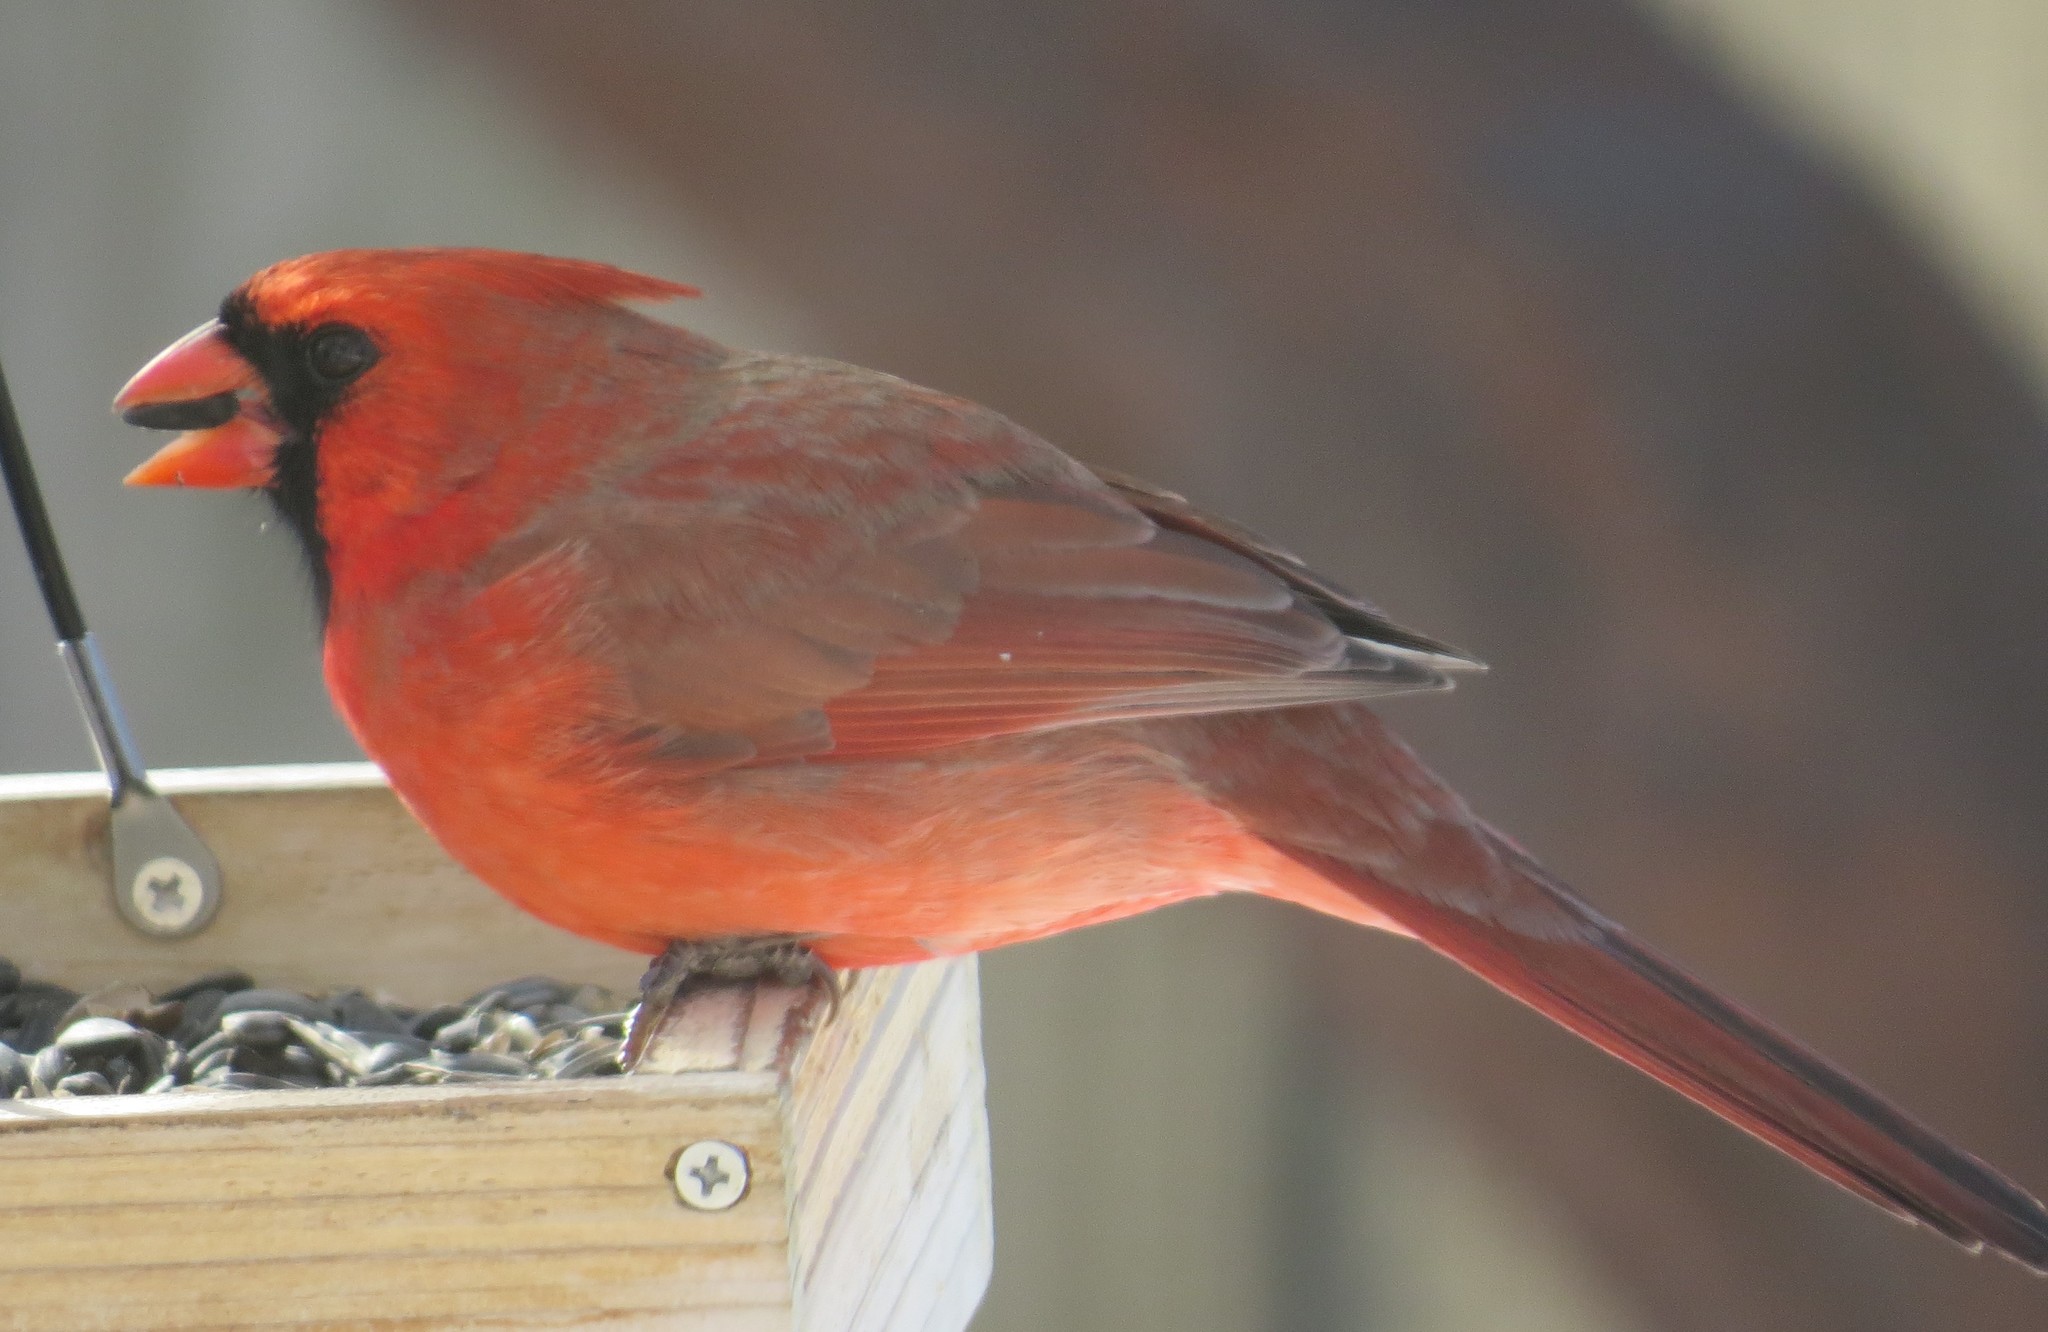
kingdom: Animalia
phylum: Chordata
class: Aves
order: Passeriformes
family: Cardinalidae
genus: Cardinalis
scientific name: Cardinalis cardinalis
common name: Northern cardinal
